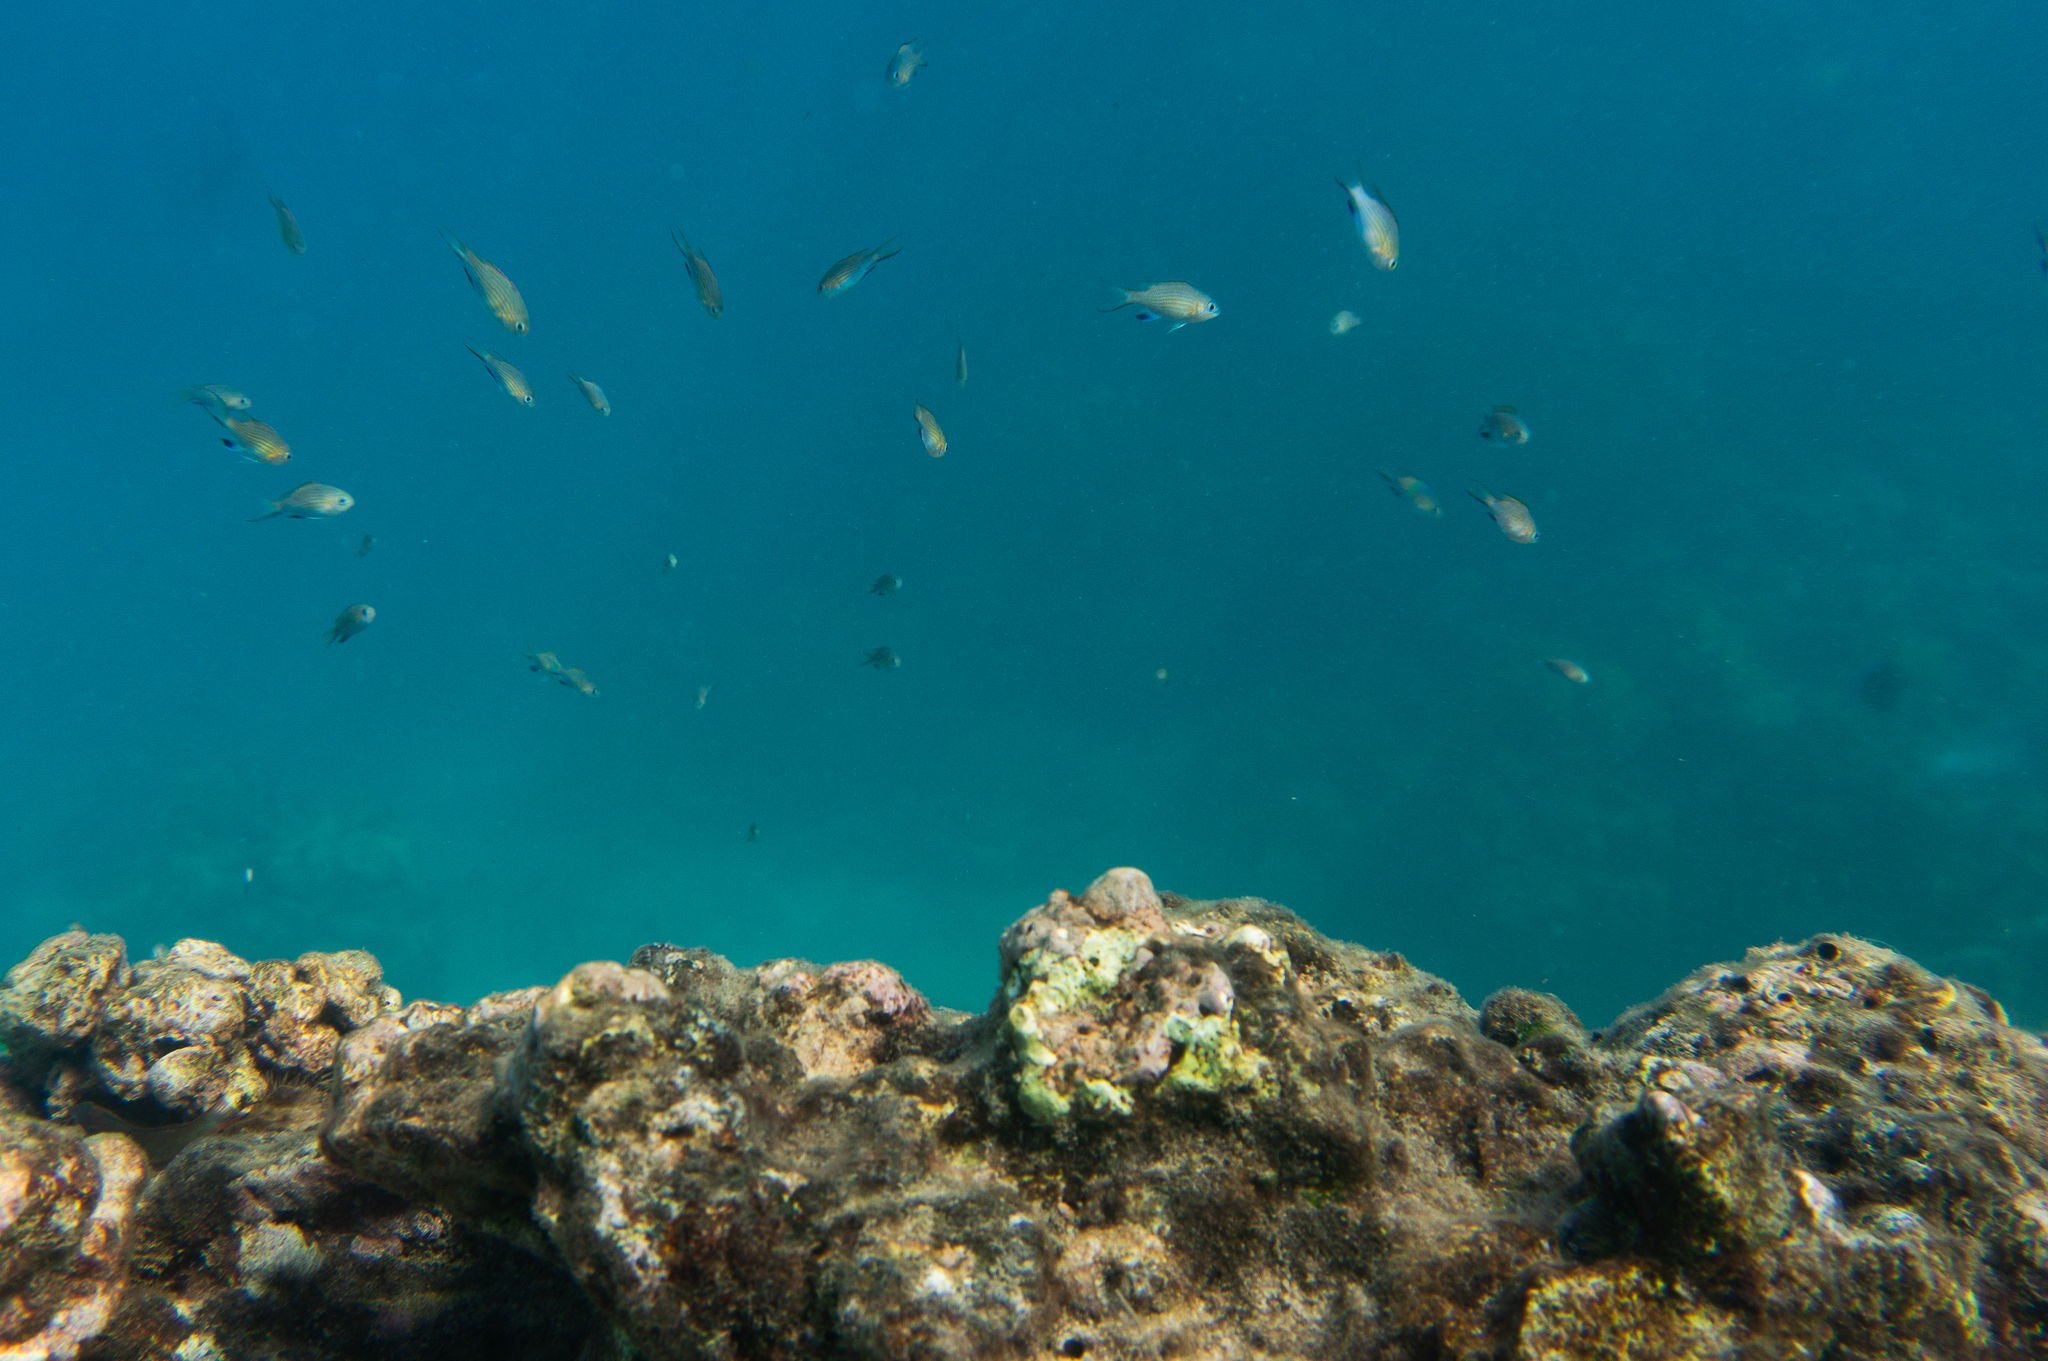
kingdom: Animalia
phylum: Chordata
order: Perciformes
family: Pomacentridae
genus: Chromis
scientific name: Chromis vanderbilti
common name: Vanderbilt's chromis
